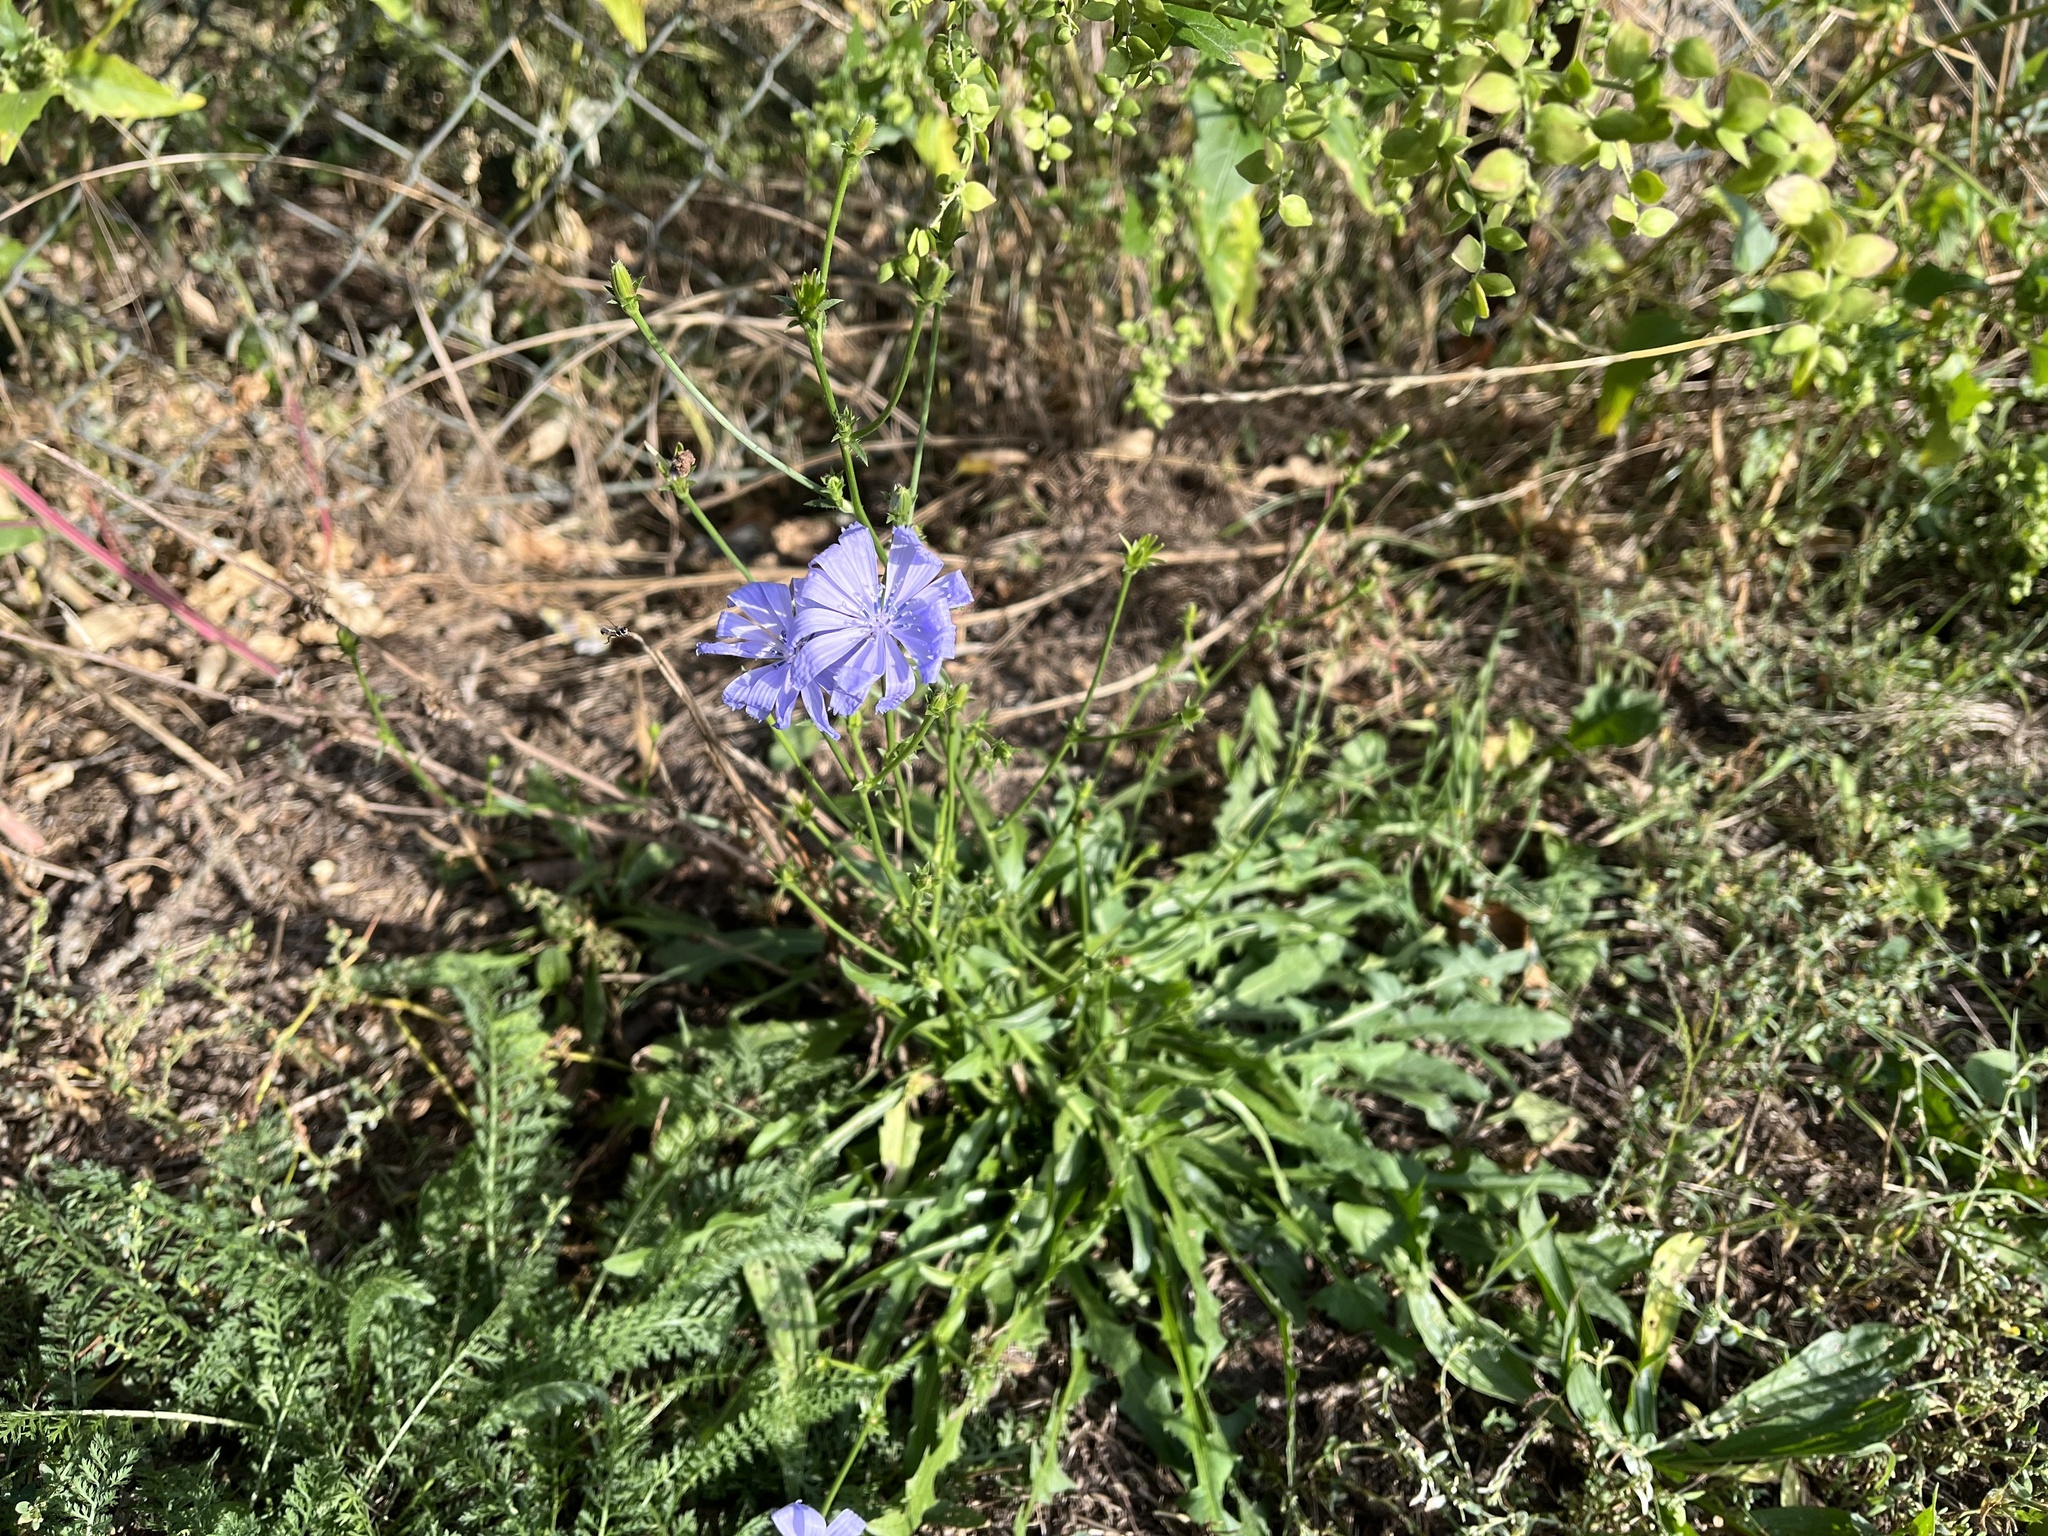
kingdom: Plantae
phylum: Tracheophyta
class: Magnoliopsida
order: Asterales
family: Asteraceae
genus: Cichorium
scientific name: Cichorium intybus
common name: Chicory
